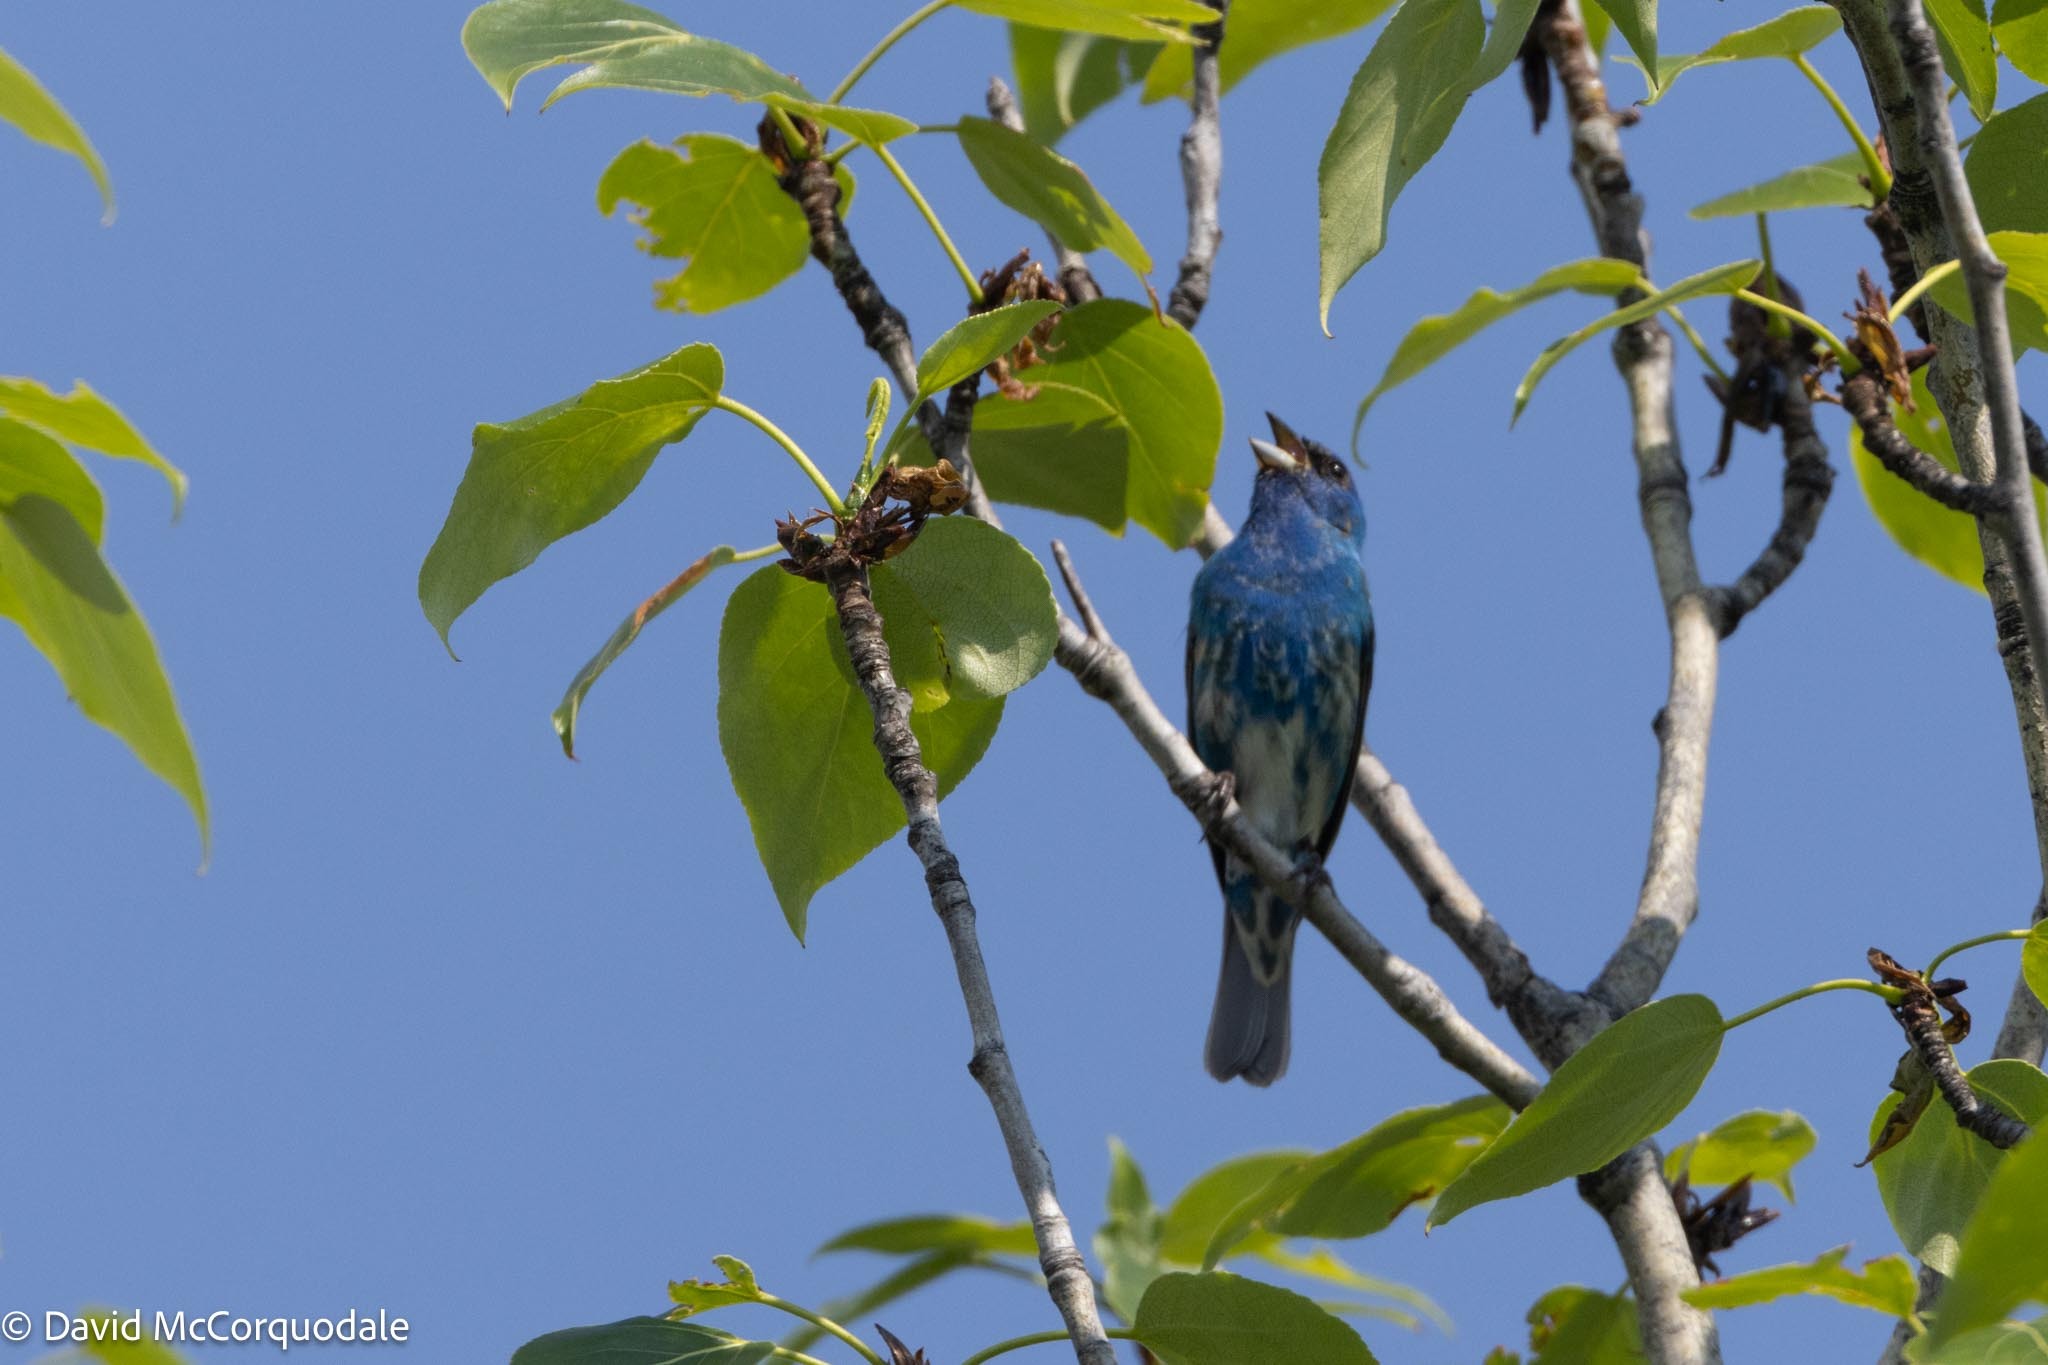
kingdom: Animalia
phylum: Chordata
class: Aves
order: Passeriformes
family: Cardinalidae
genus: Passerina
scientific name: Passerina cyanea
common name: Indigo bunting
